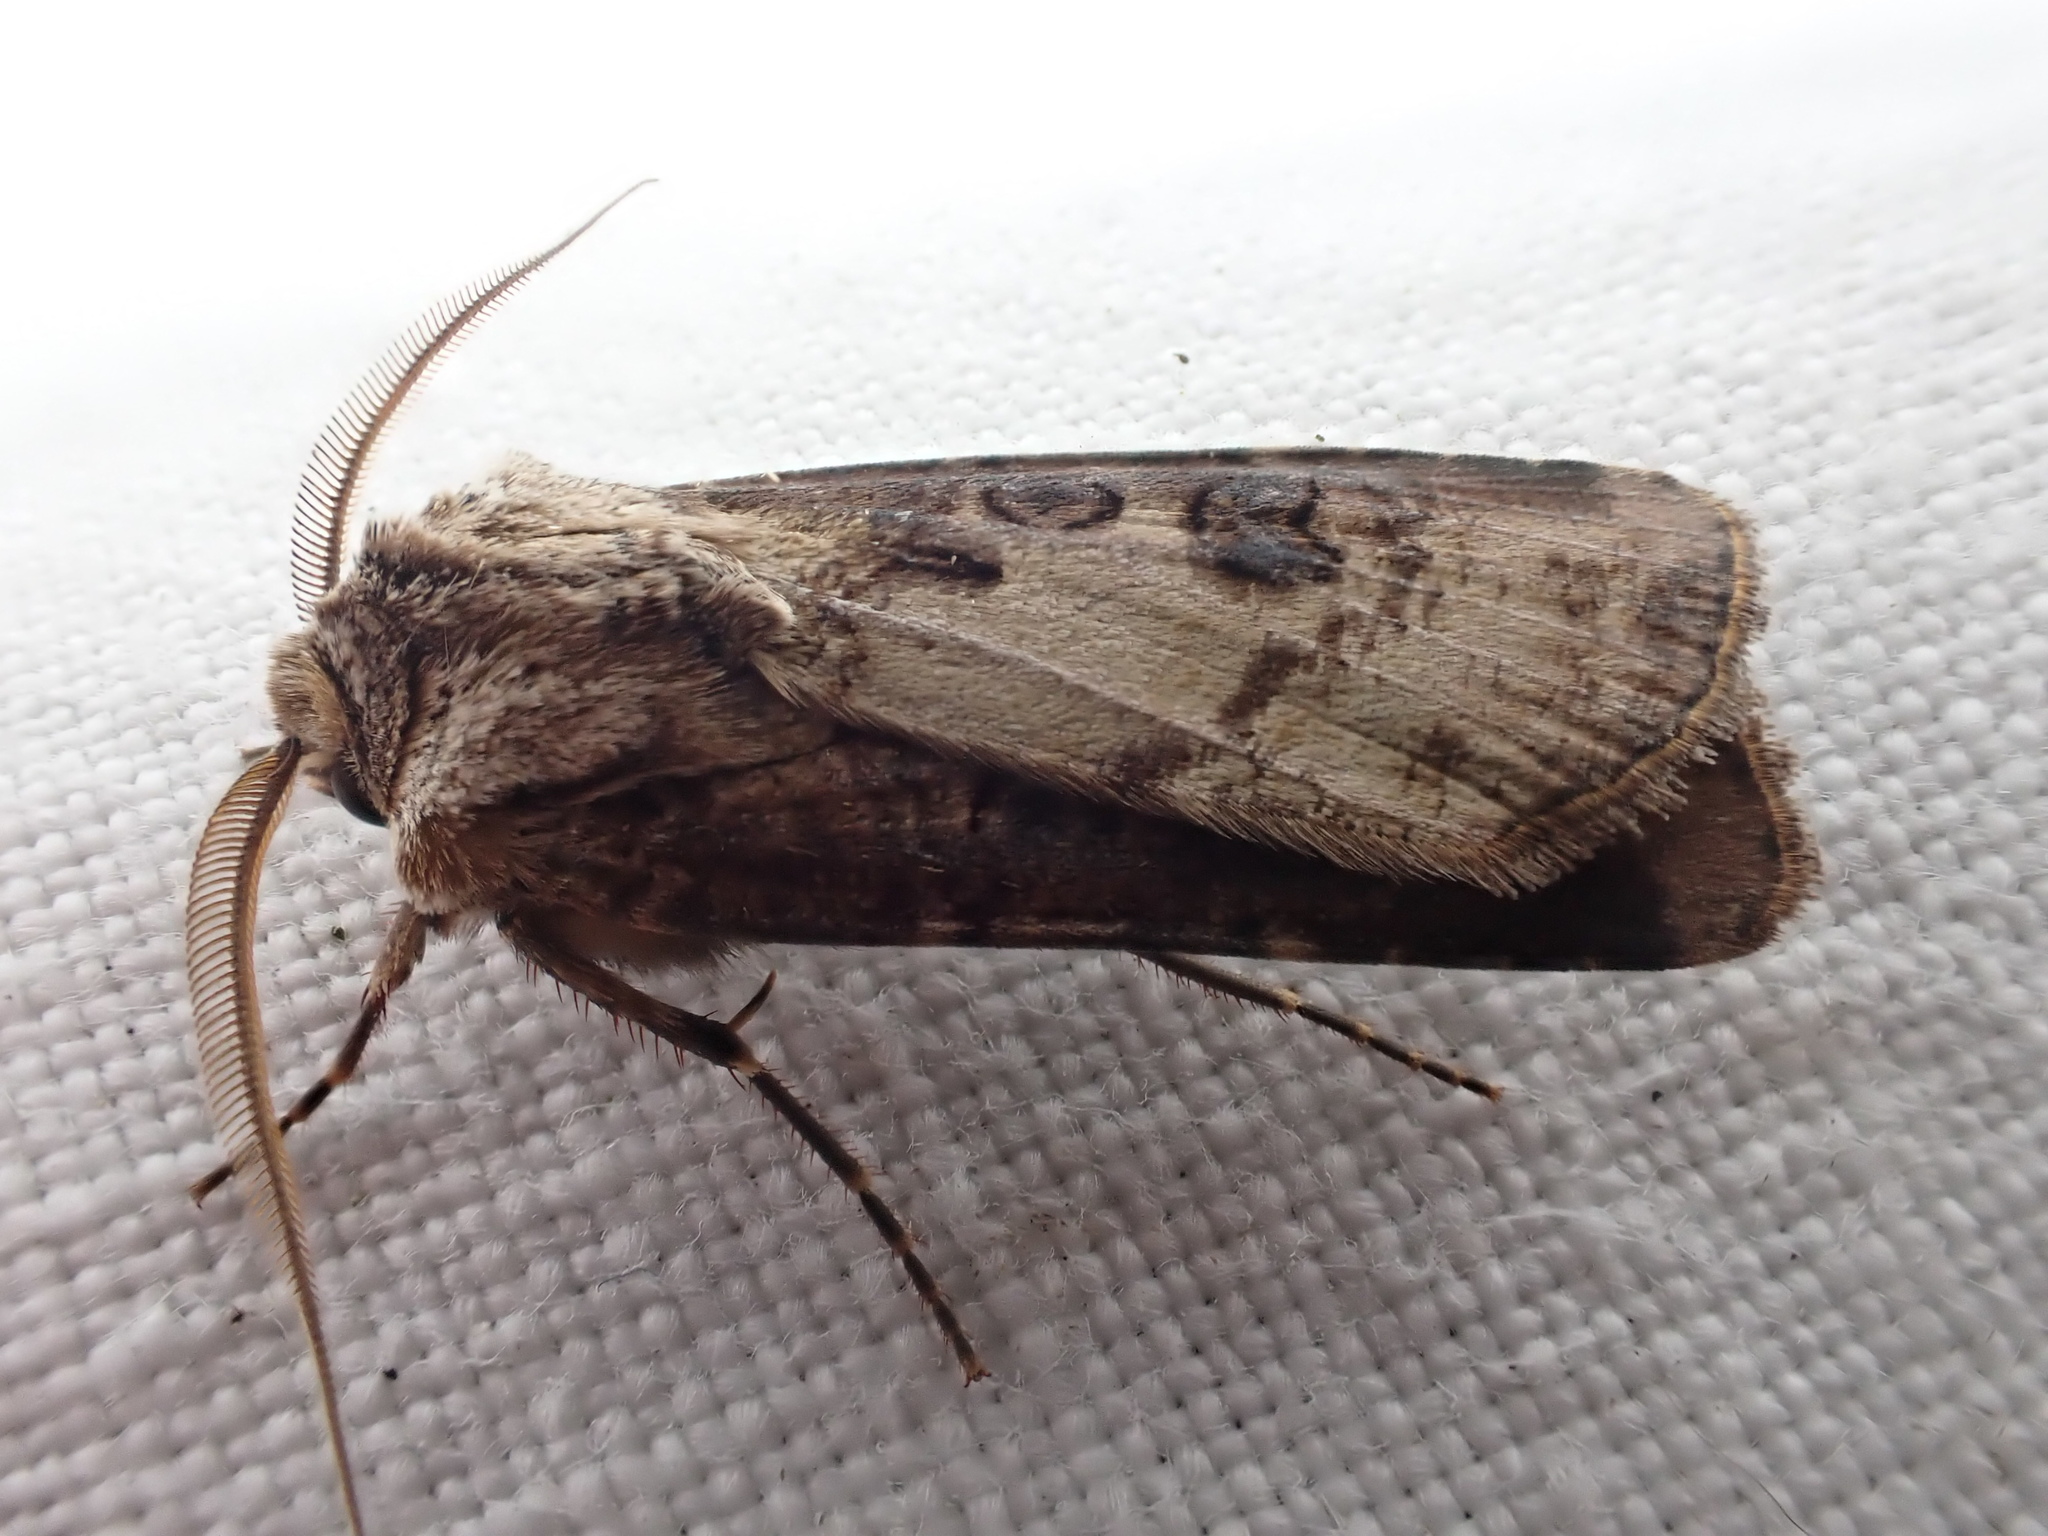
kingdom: Animalia
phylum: Arthropoda
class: Insecta
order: Lepidoptera
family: Noctuidae
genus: Agrotis
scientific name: Agrotis clavis
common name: Heart and club
